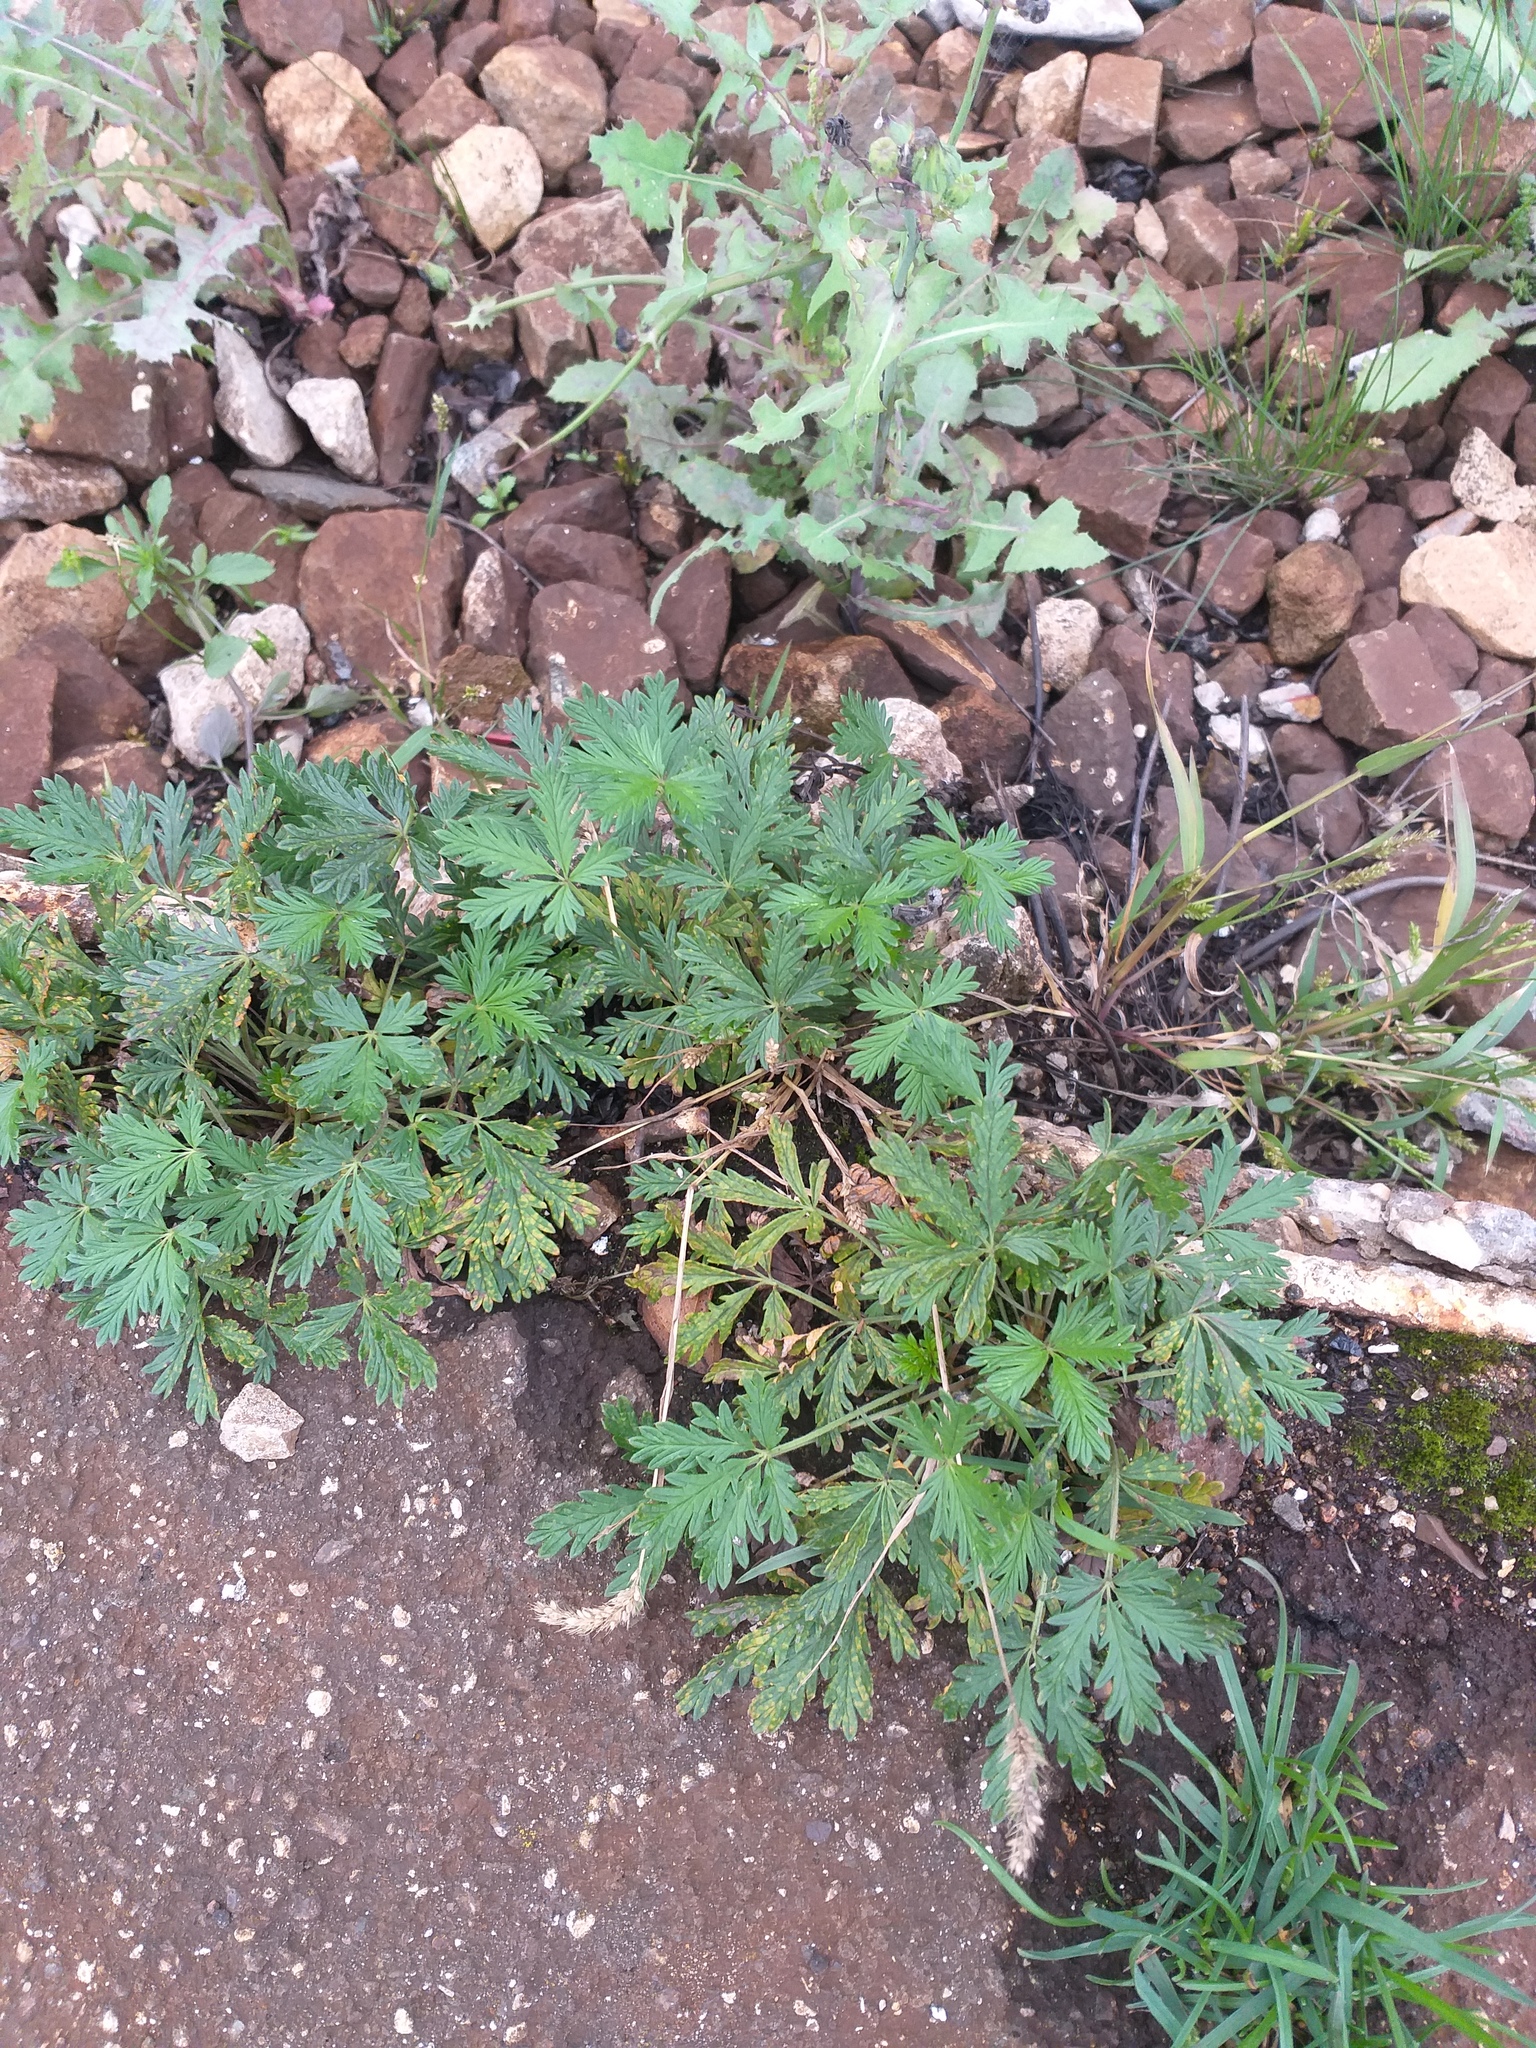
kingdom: Plantae
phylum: Tracheophyta
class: Magnoliopsida
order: Rosales
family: Rosaceae
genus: Potentilla
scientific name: Potentilla argentea
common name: Hoary cinquefoil
